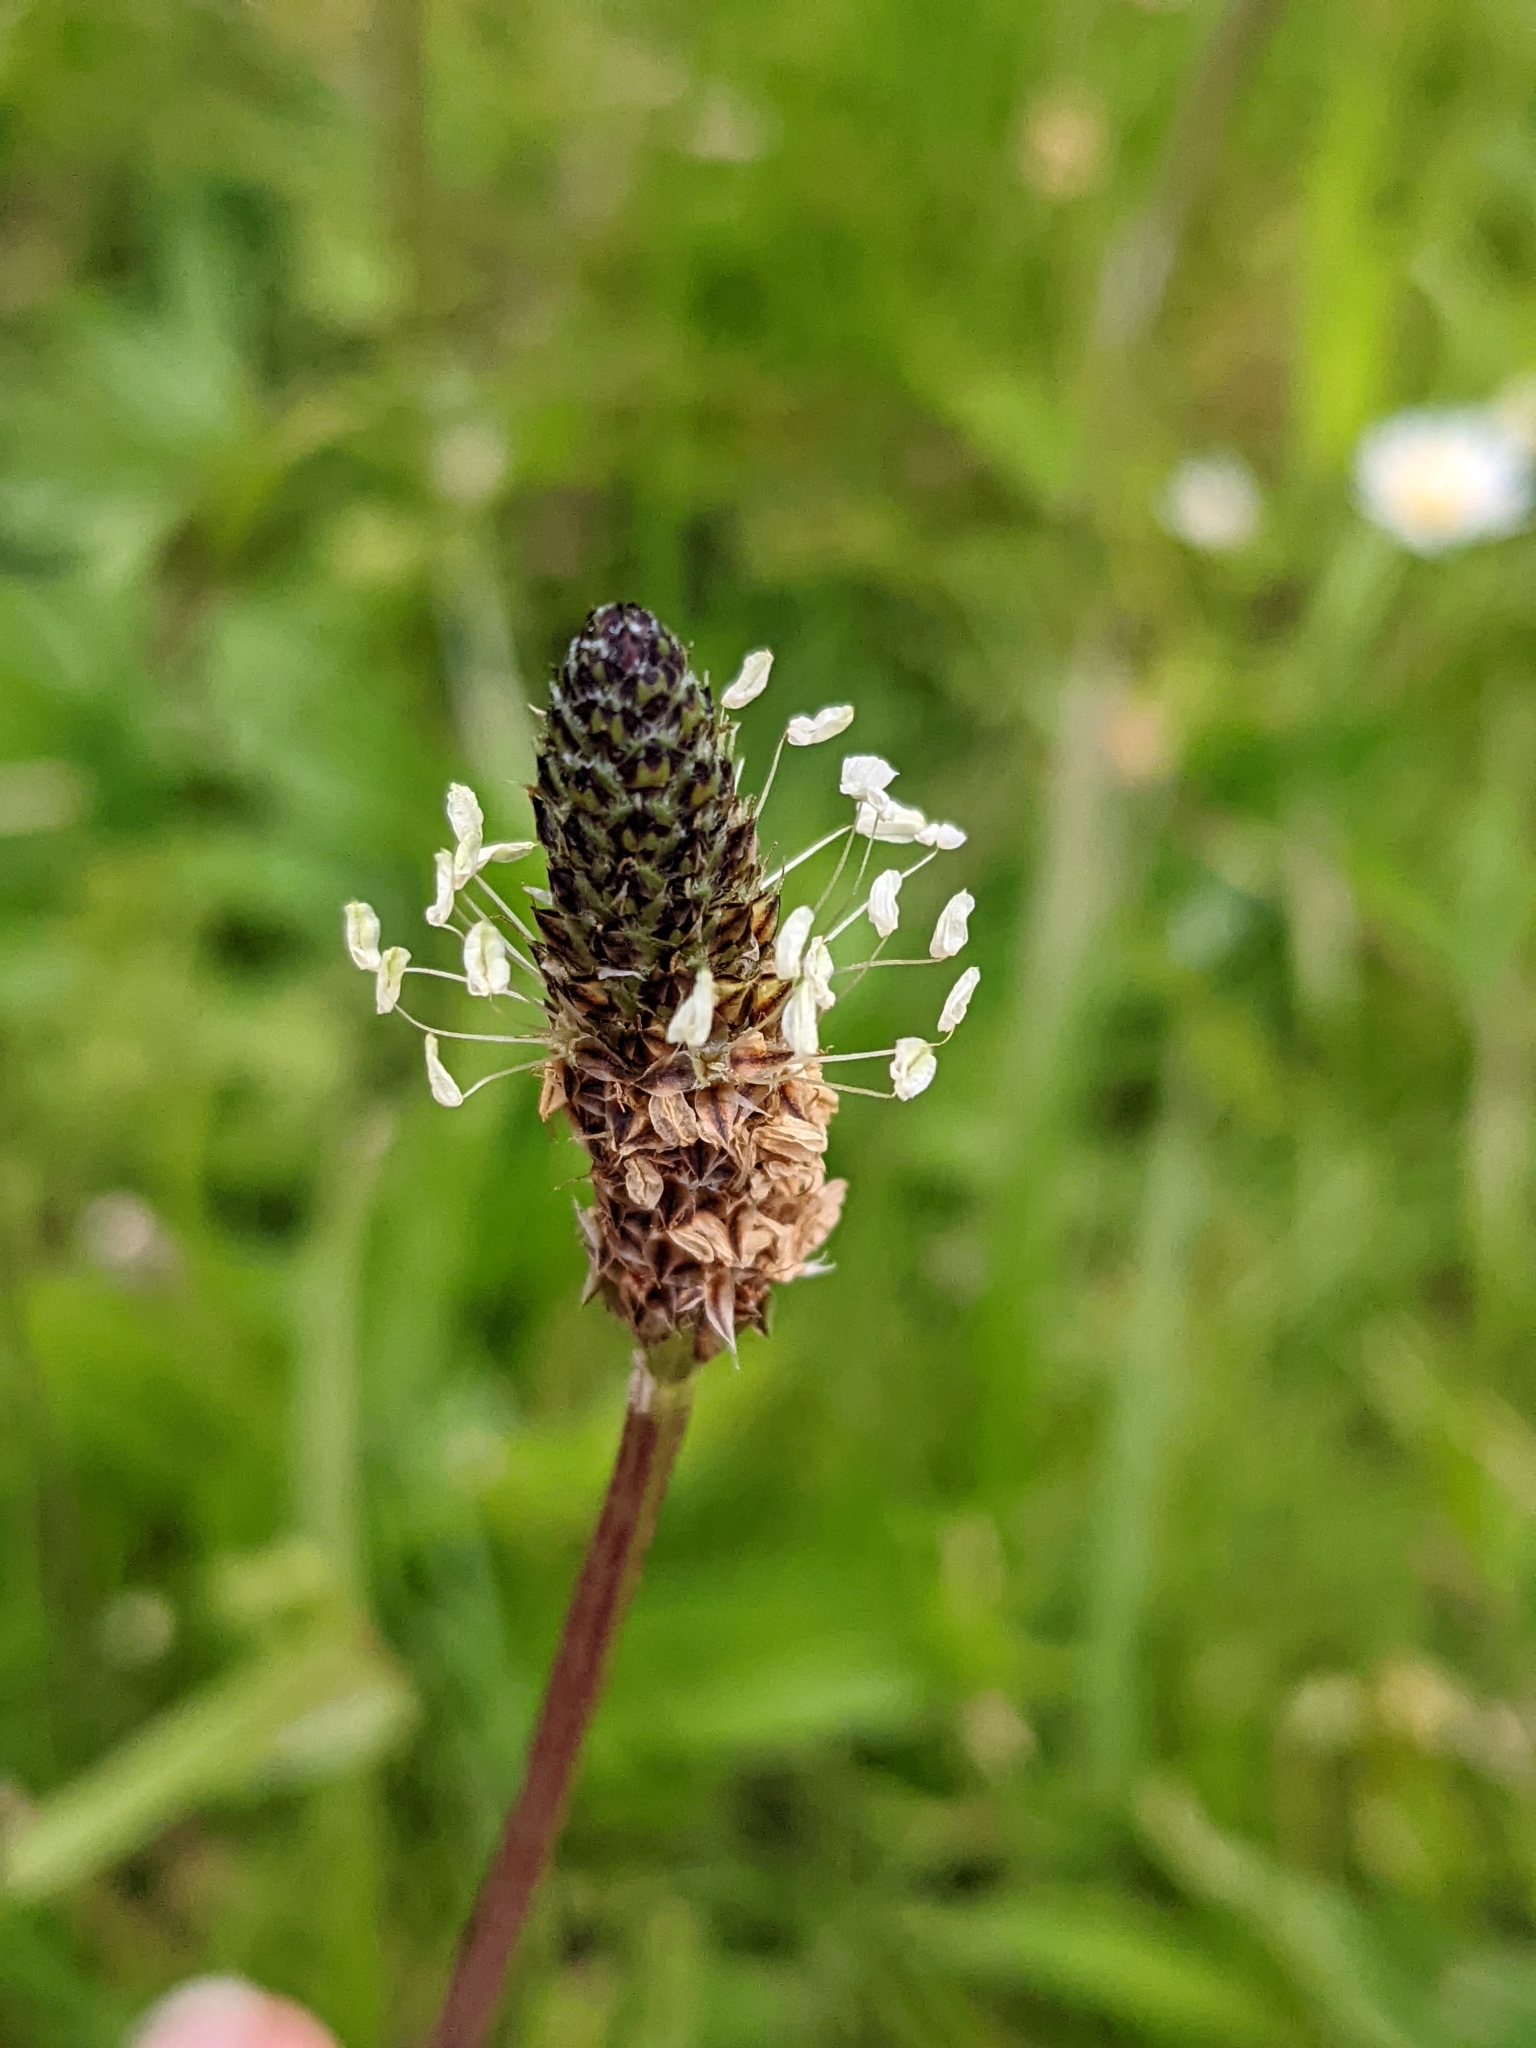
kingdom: Plantae
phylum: Tracheophyta
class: Magnoliopsida
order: Lamiales
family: Plantaginaceae
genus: Plantago
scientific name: Plantago lanceolata
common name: Ribwort plantain
